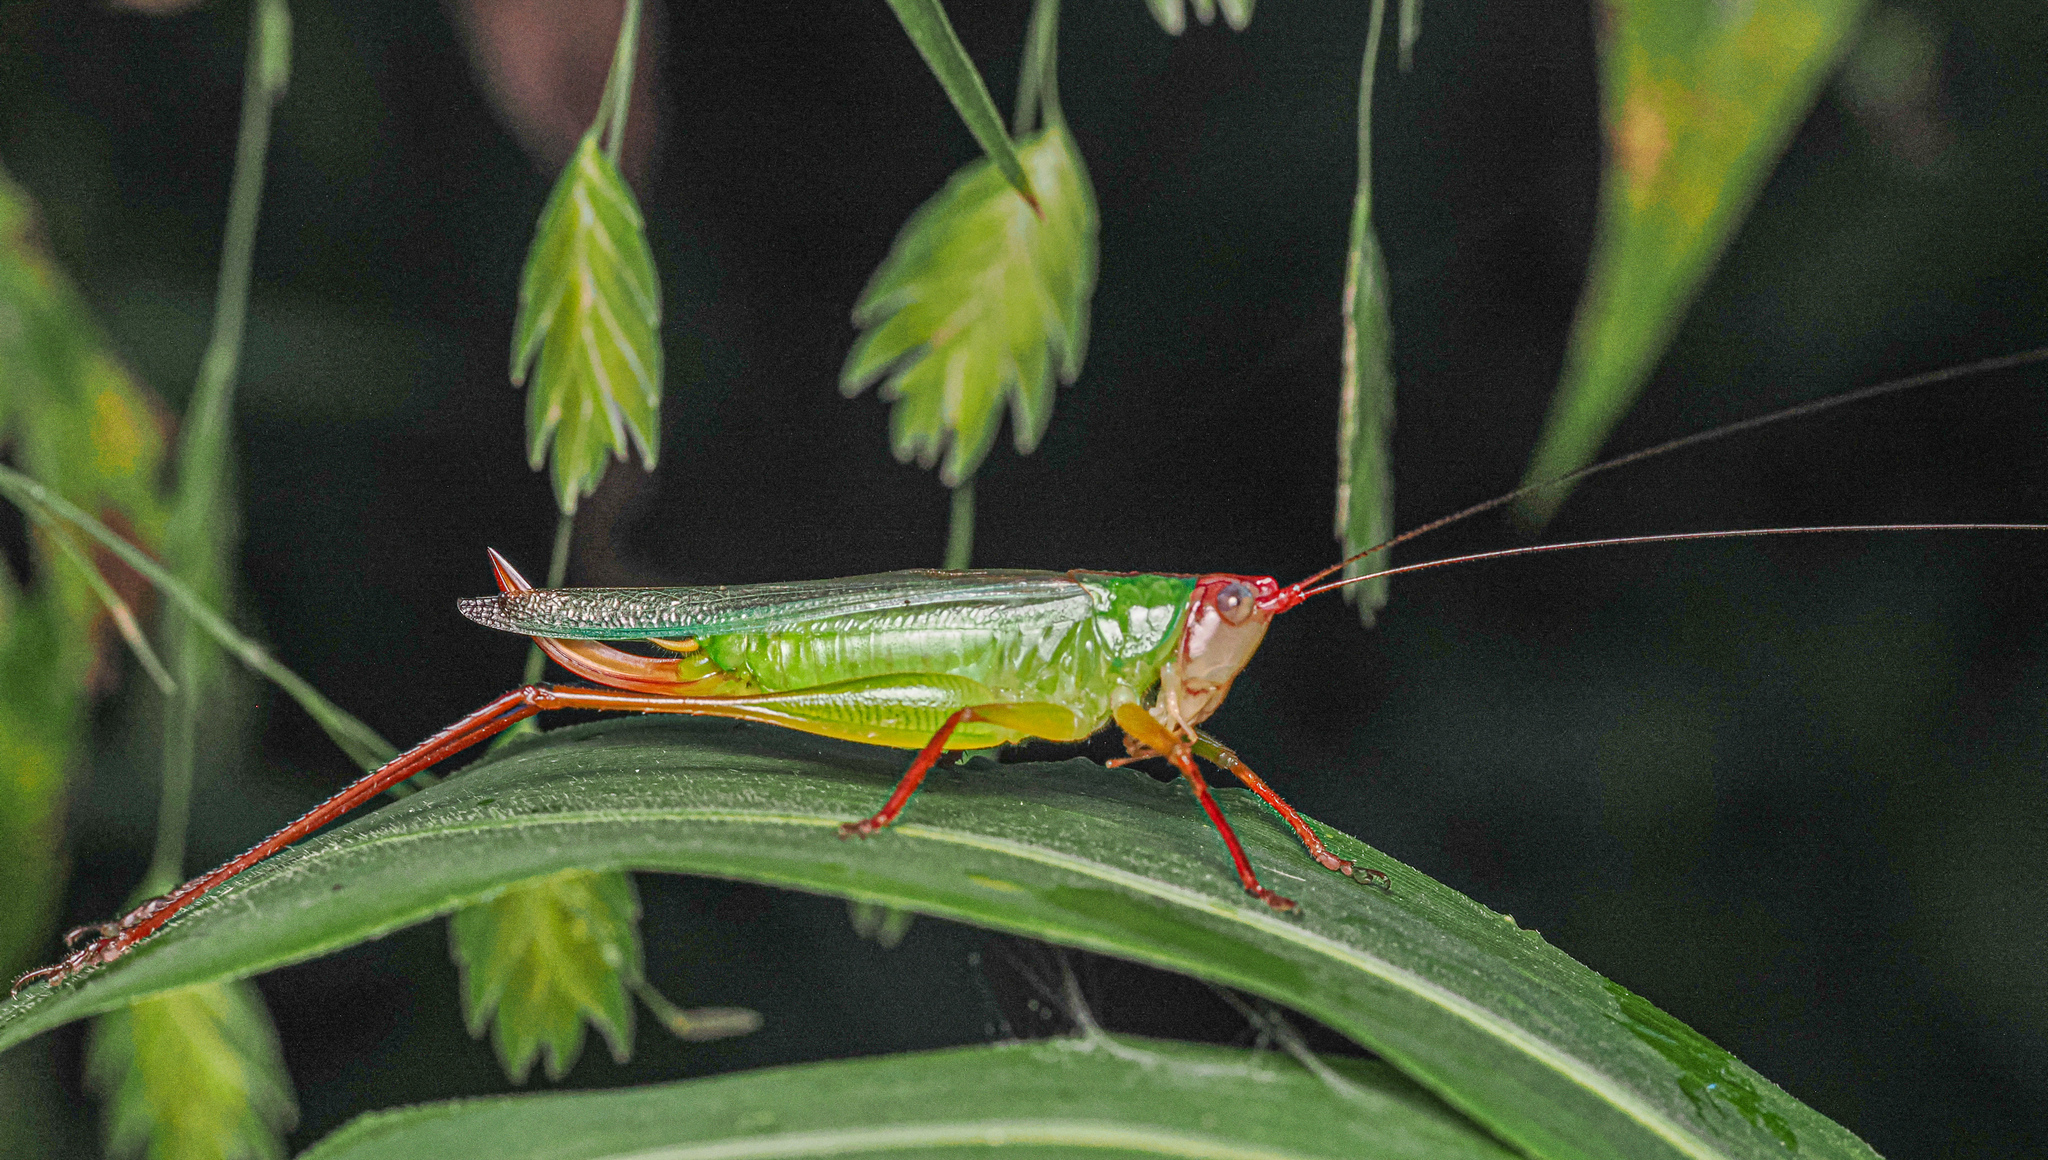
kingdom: Animalia
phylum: Arthropoda
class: Insecta
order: Orthoptera
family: Tettigoniidae
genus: Orchelimum
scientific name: Orchelimum pulchellum
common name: Handsome meadow katydid
